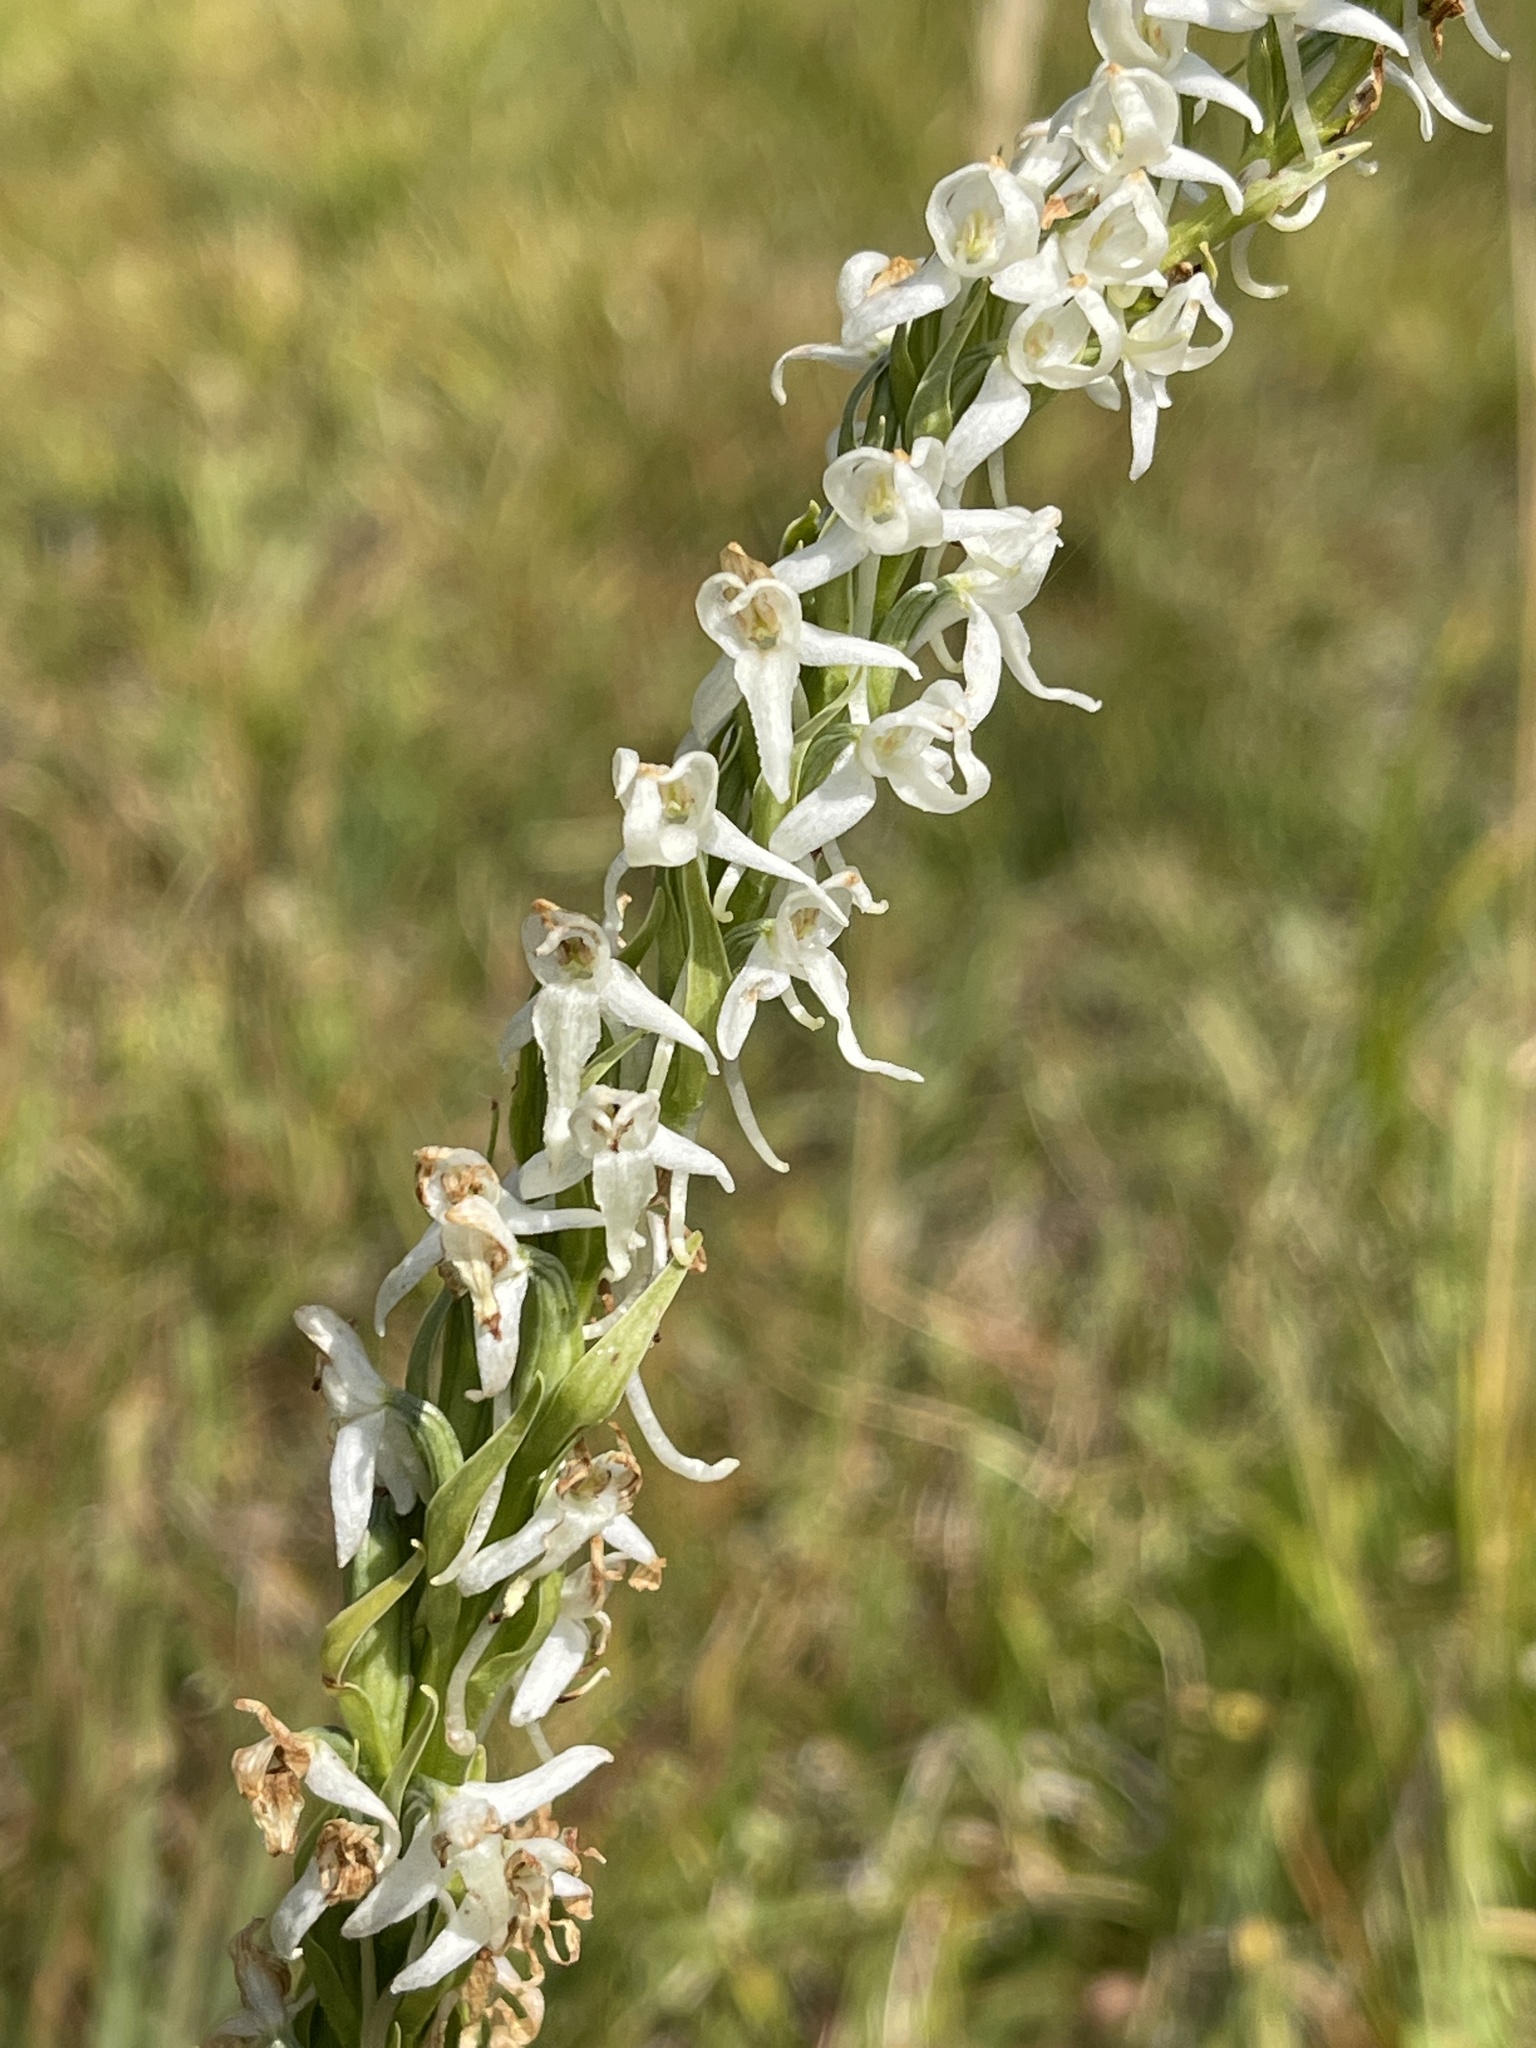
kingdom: Plantae
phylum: Tracheophyta
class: Liliopsida
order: Asparagales
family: Orchidaceae
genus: Platanthera
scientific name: Platanthera dilatata
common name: Bog candles
